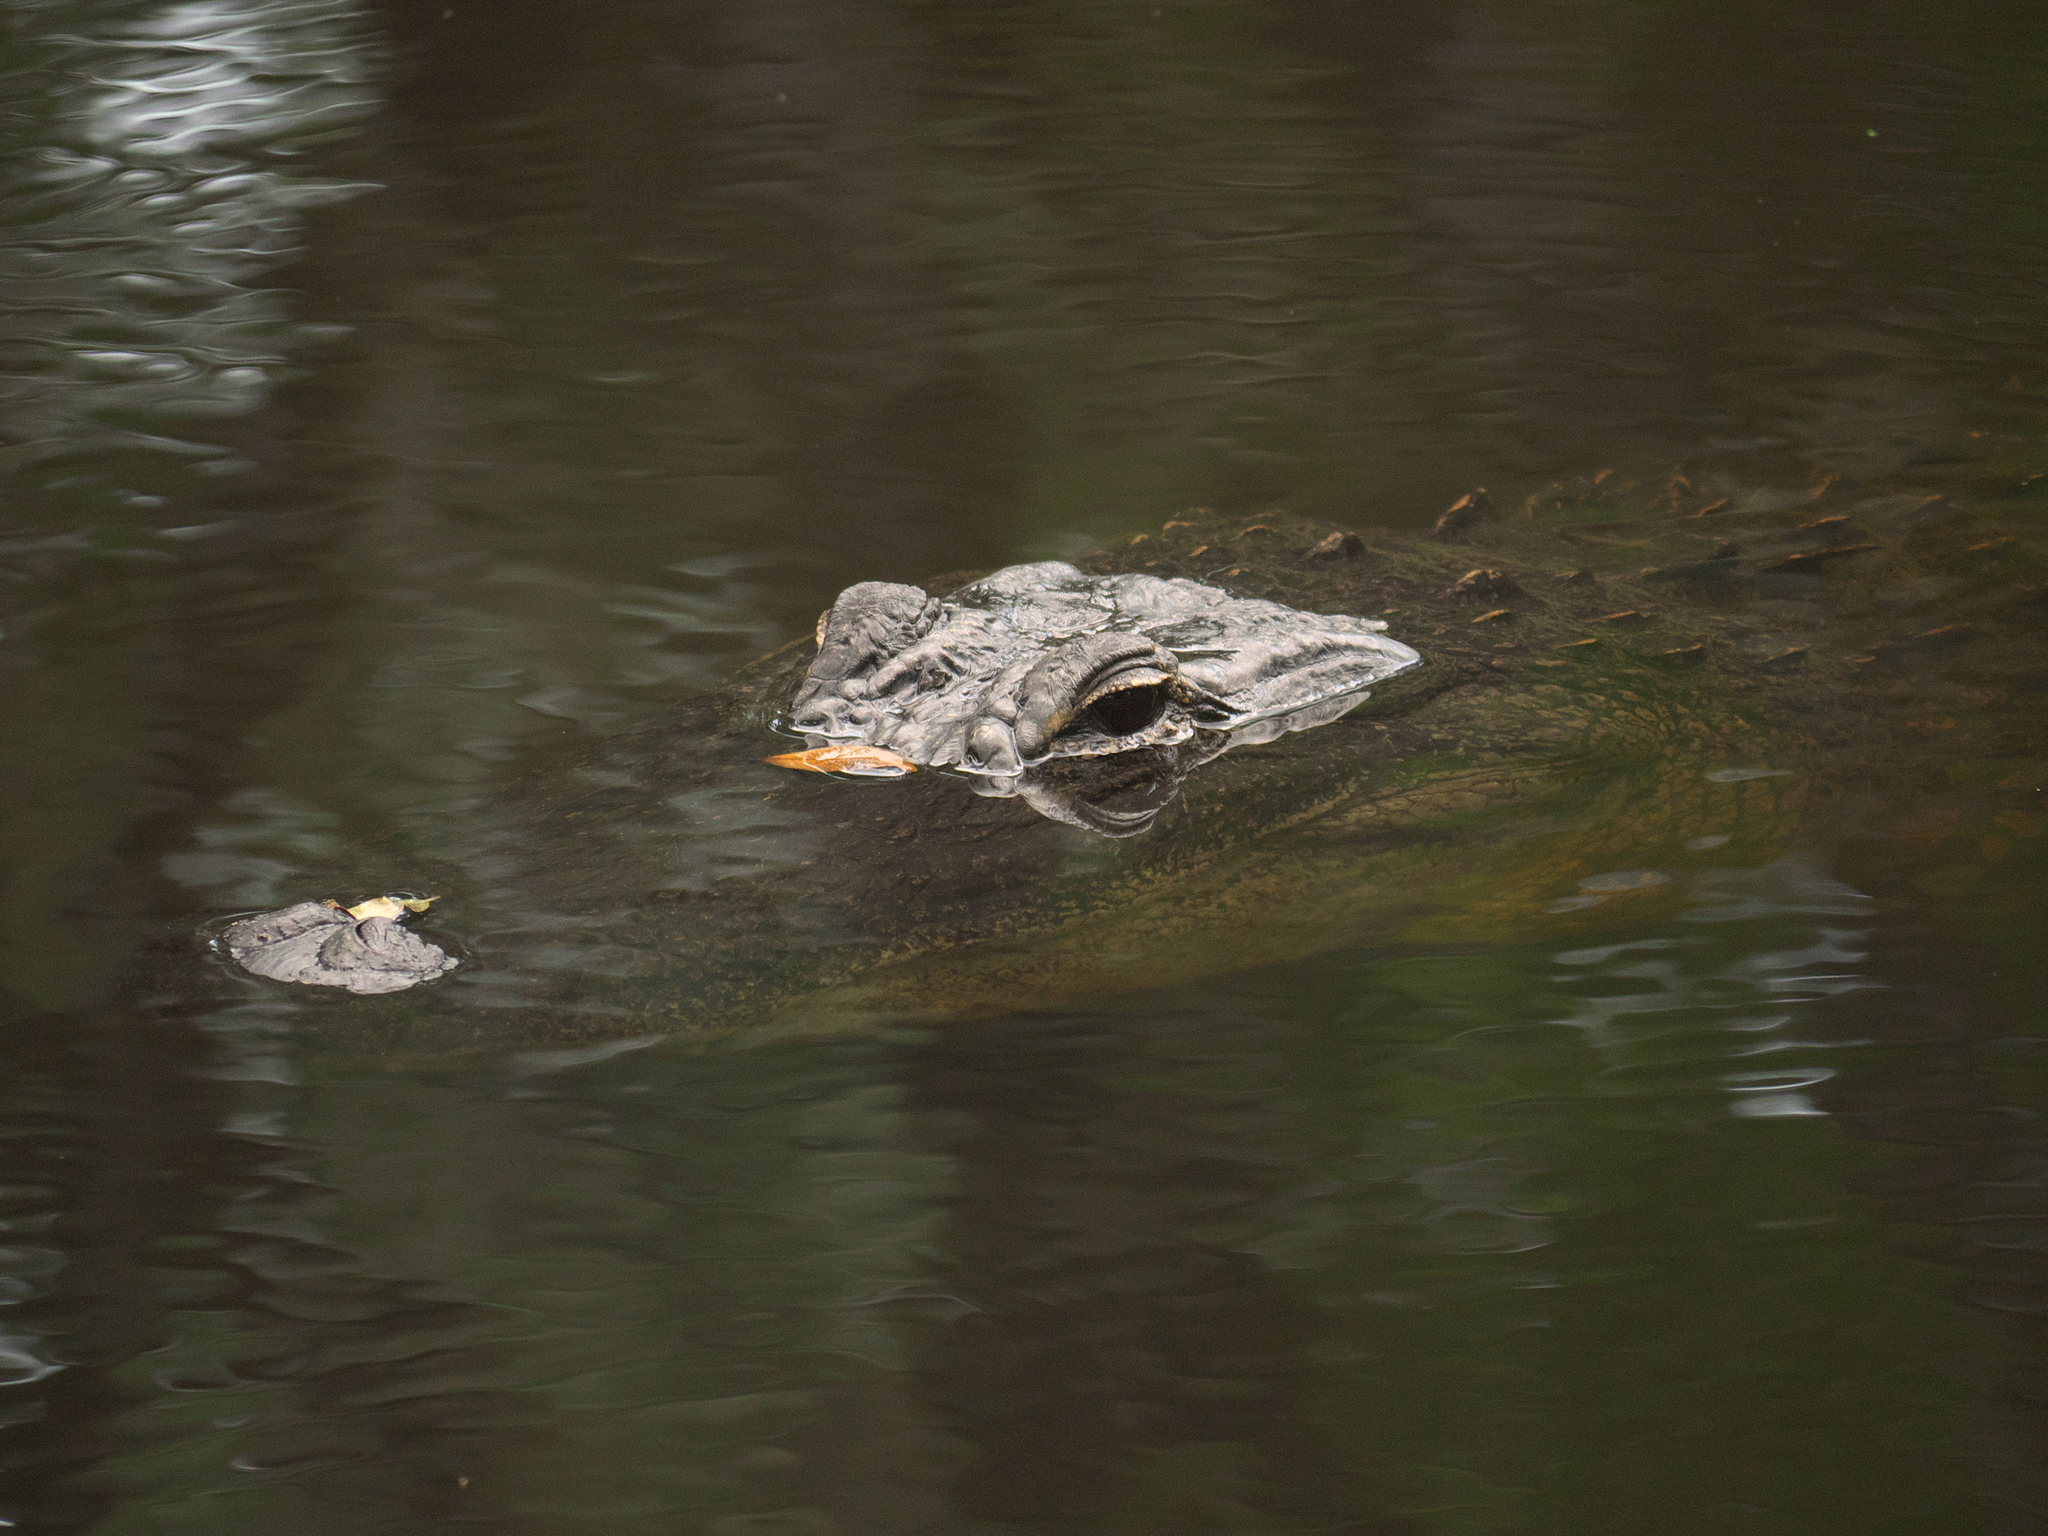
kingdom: Animalia
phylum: Chordata
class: Crocodylia
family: Alligatoridae
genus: Alligator
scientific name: Alligator mississippiensis
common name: American alligator
